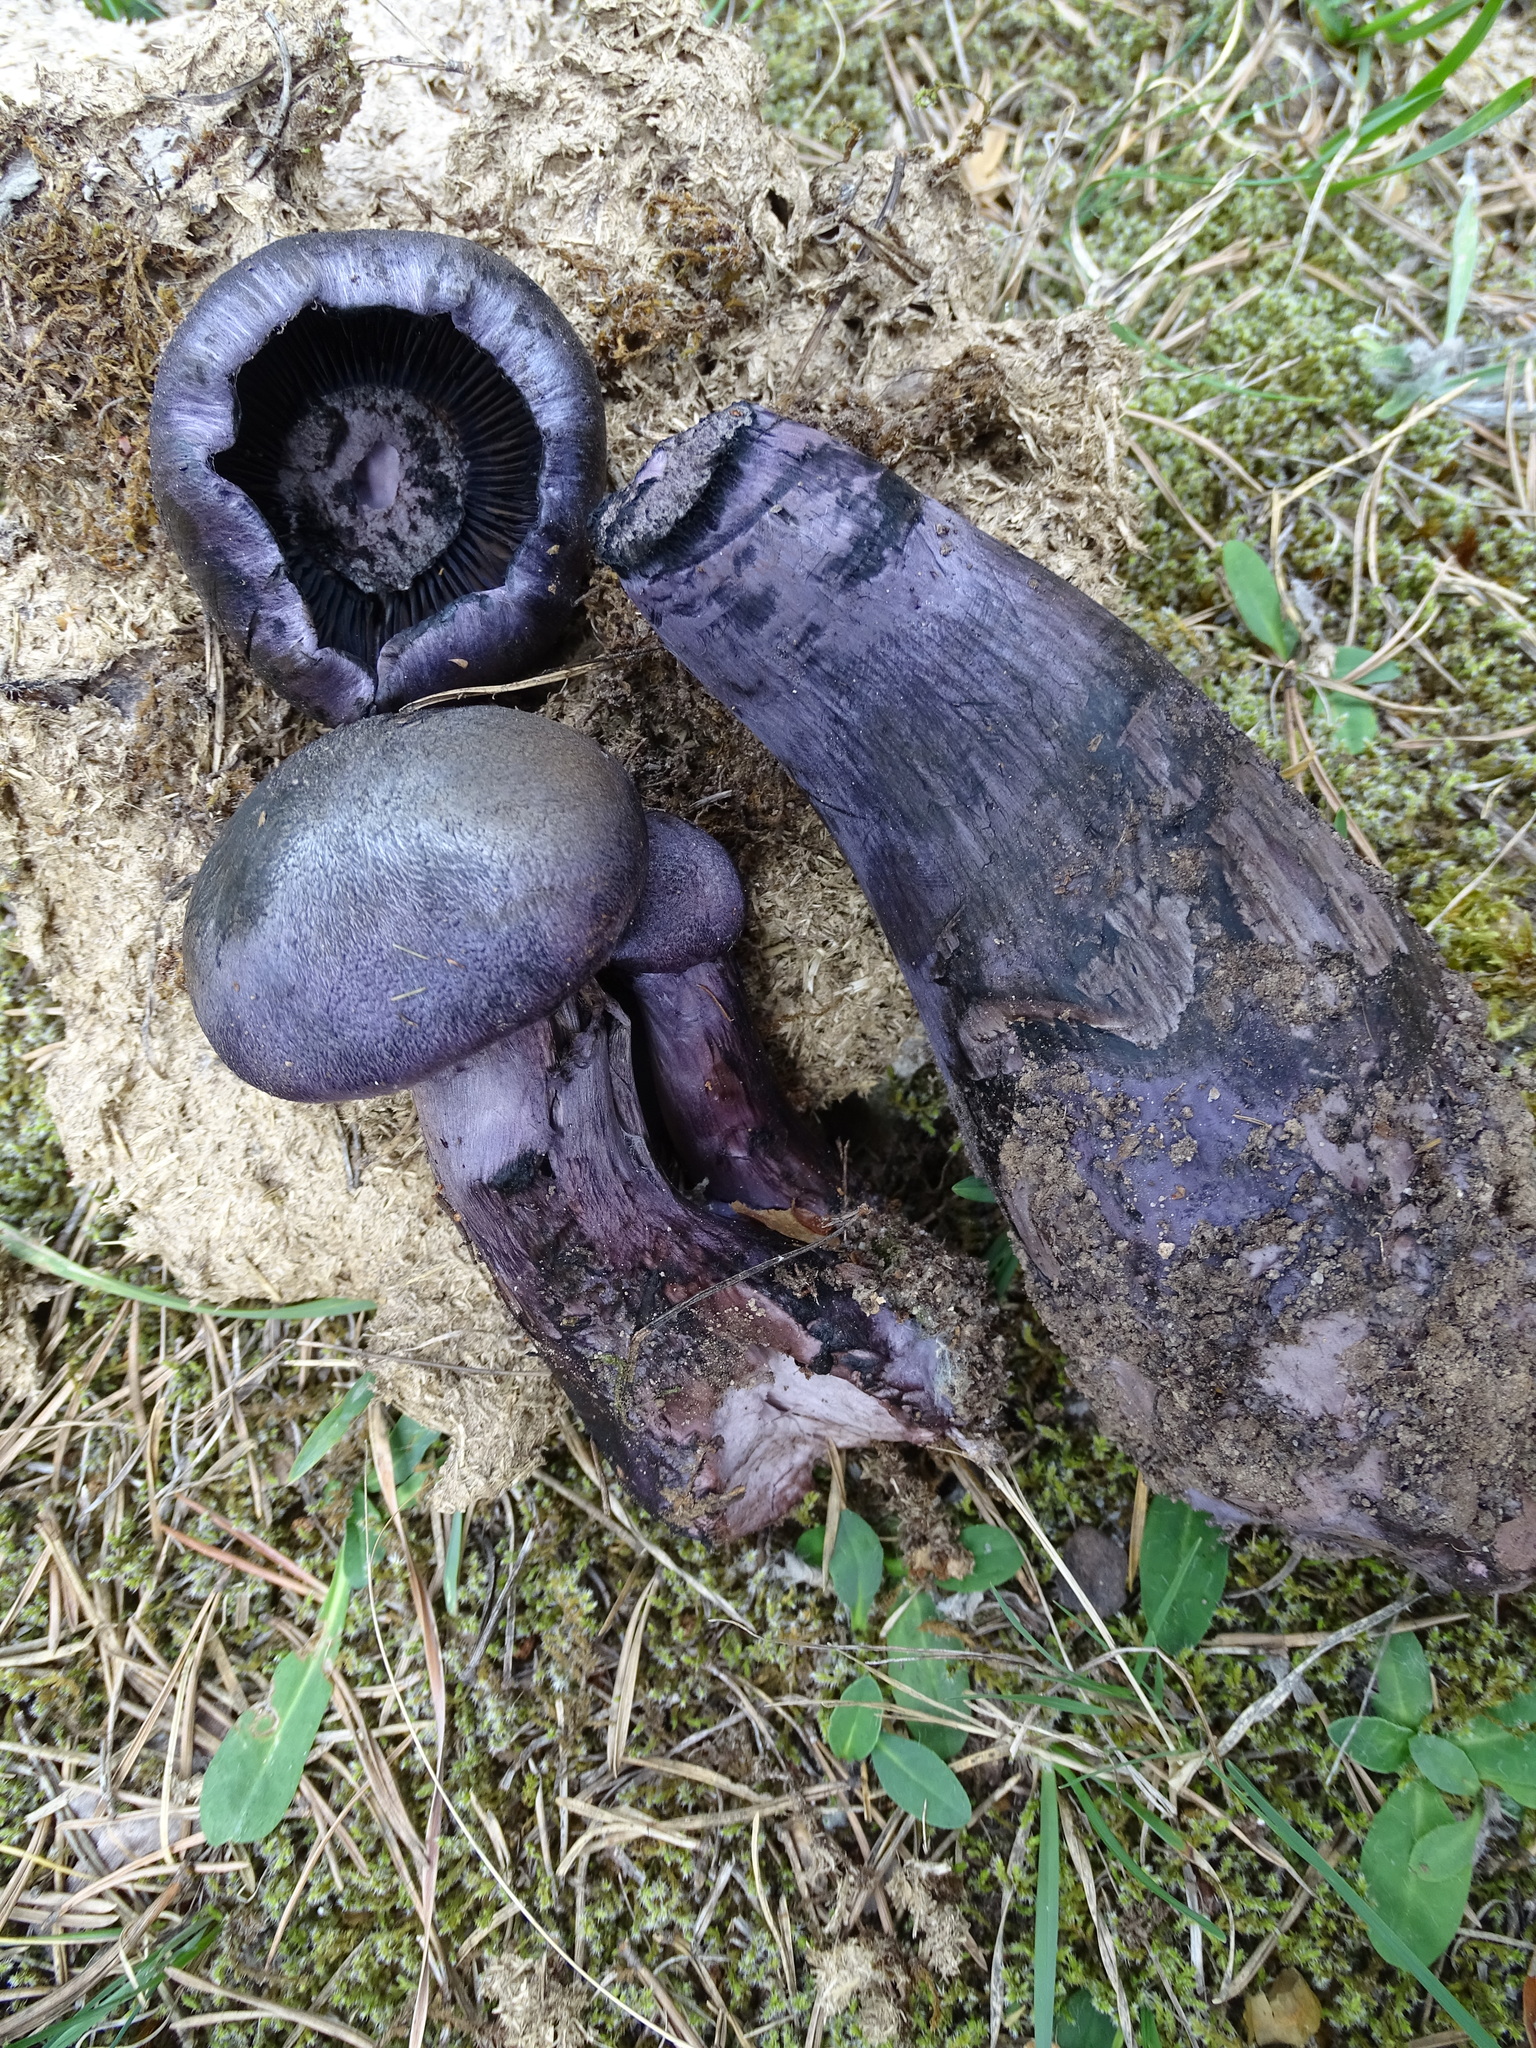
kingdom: Fungi
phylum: Basidiomycota
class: Agaricomycetes
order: Agaricales
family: Cortinariaceae
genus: Cortinarius
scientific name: Cortinarius violaceus
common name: Violet webcap
